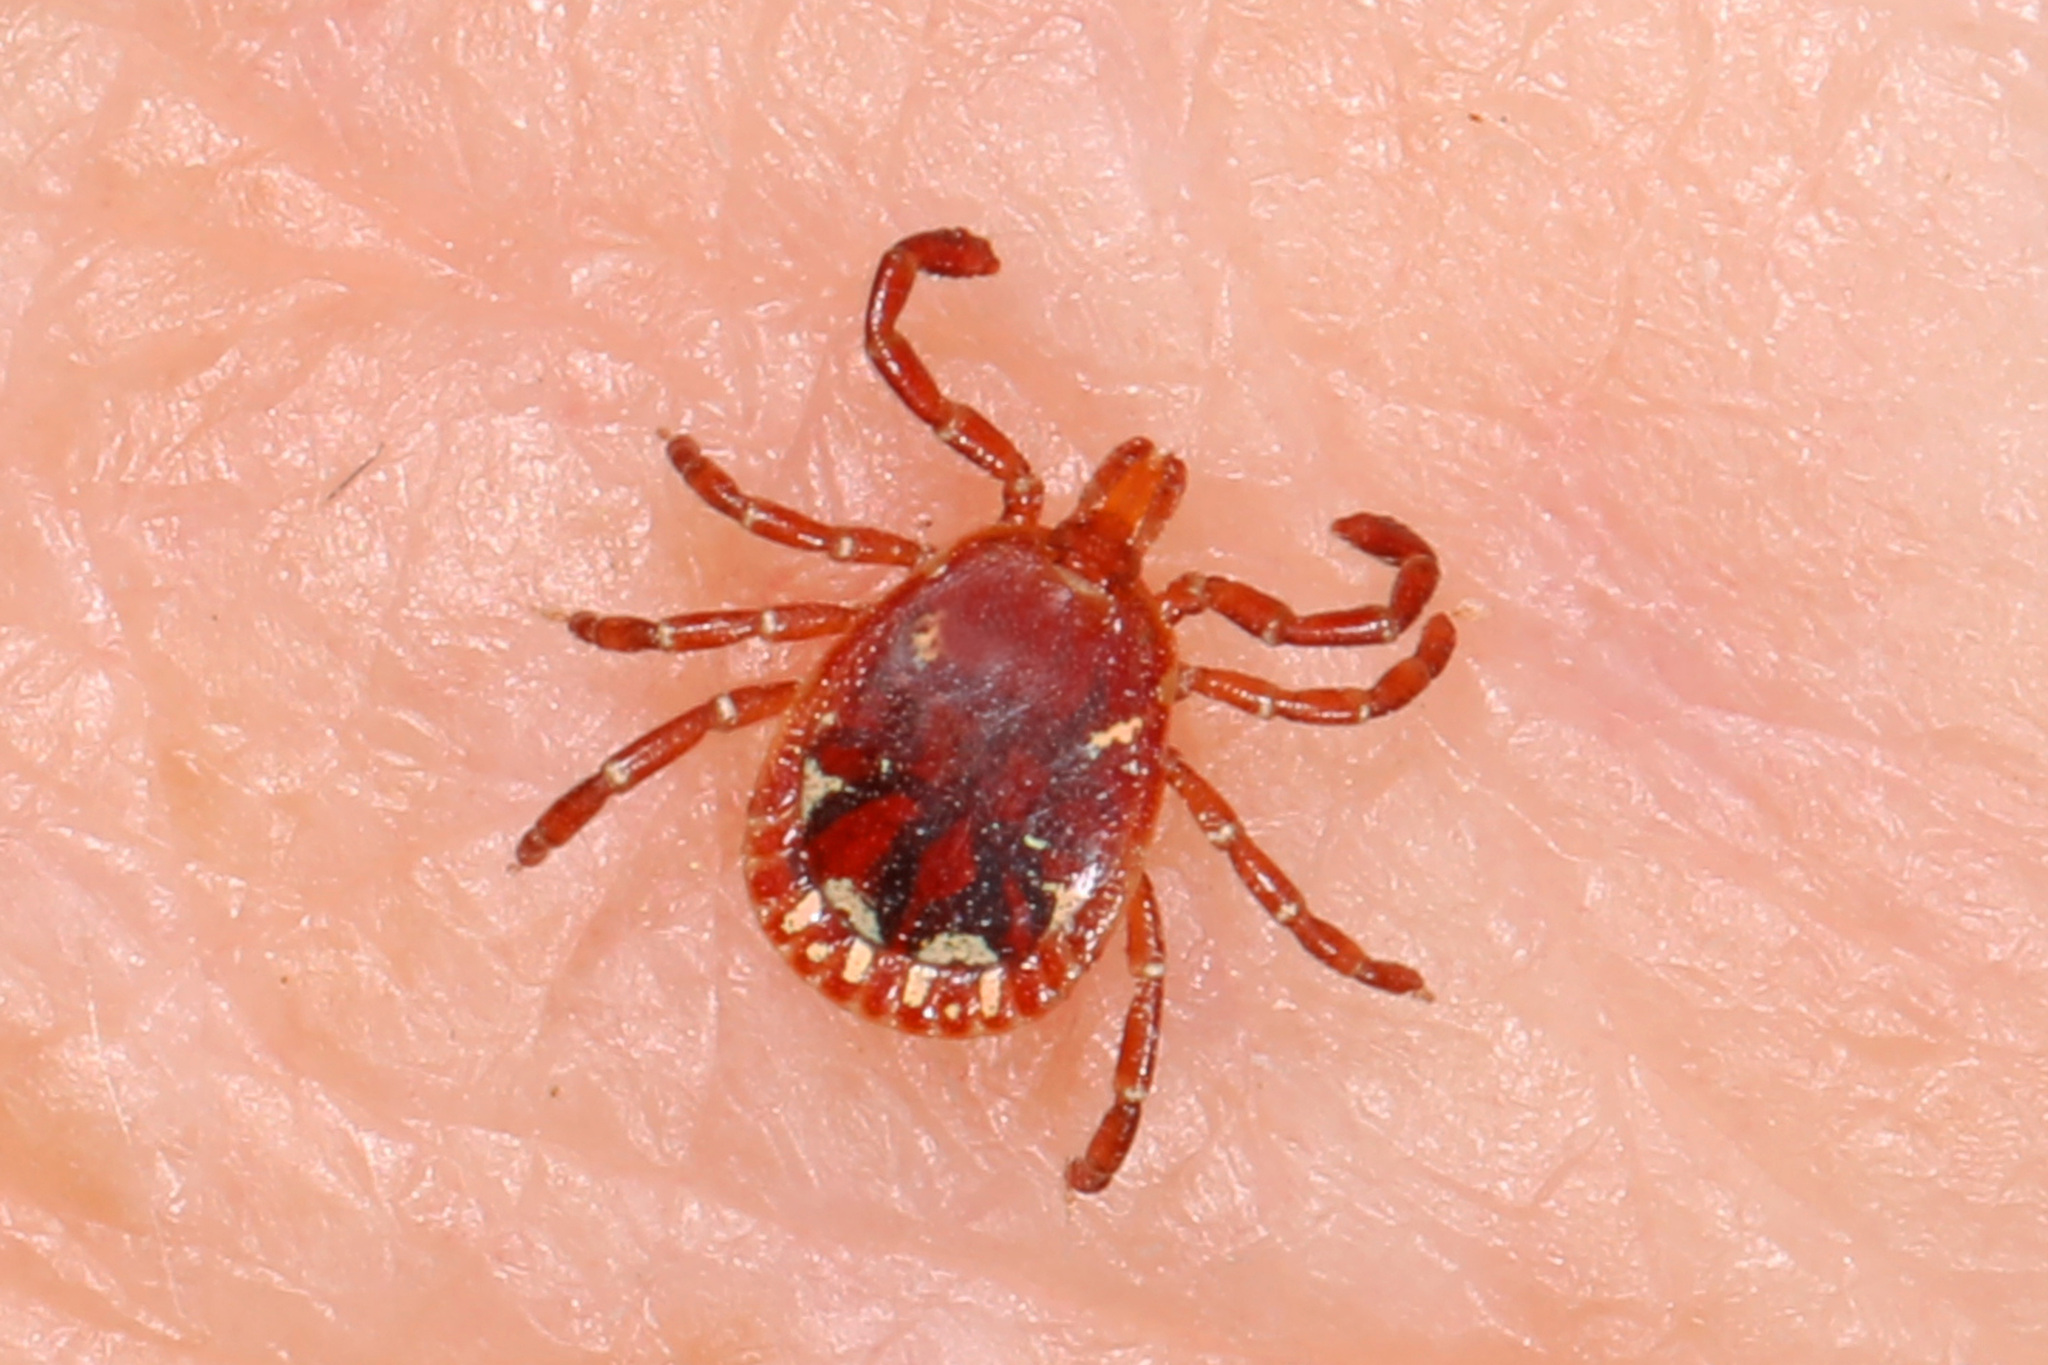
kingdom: Animalia
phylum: Arthropoda
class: Arachnida
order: Ixodida
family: Ixodidae
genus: Amblyomma
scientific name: Amblyomma americanum
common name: Lone star tick
